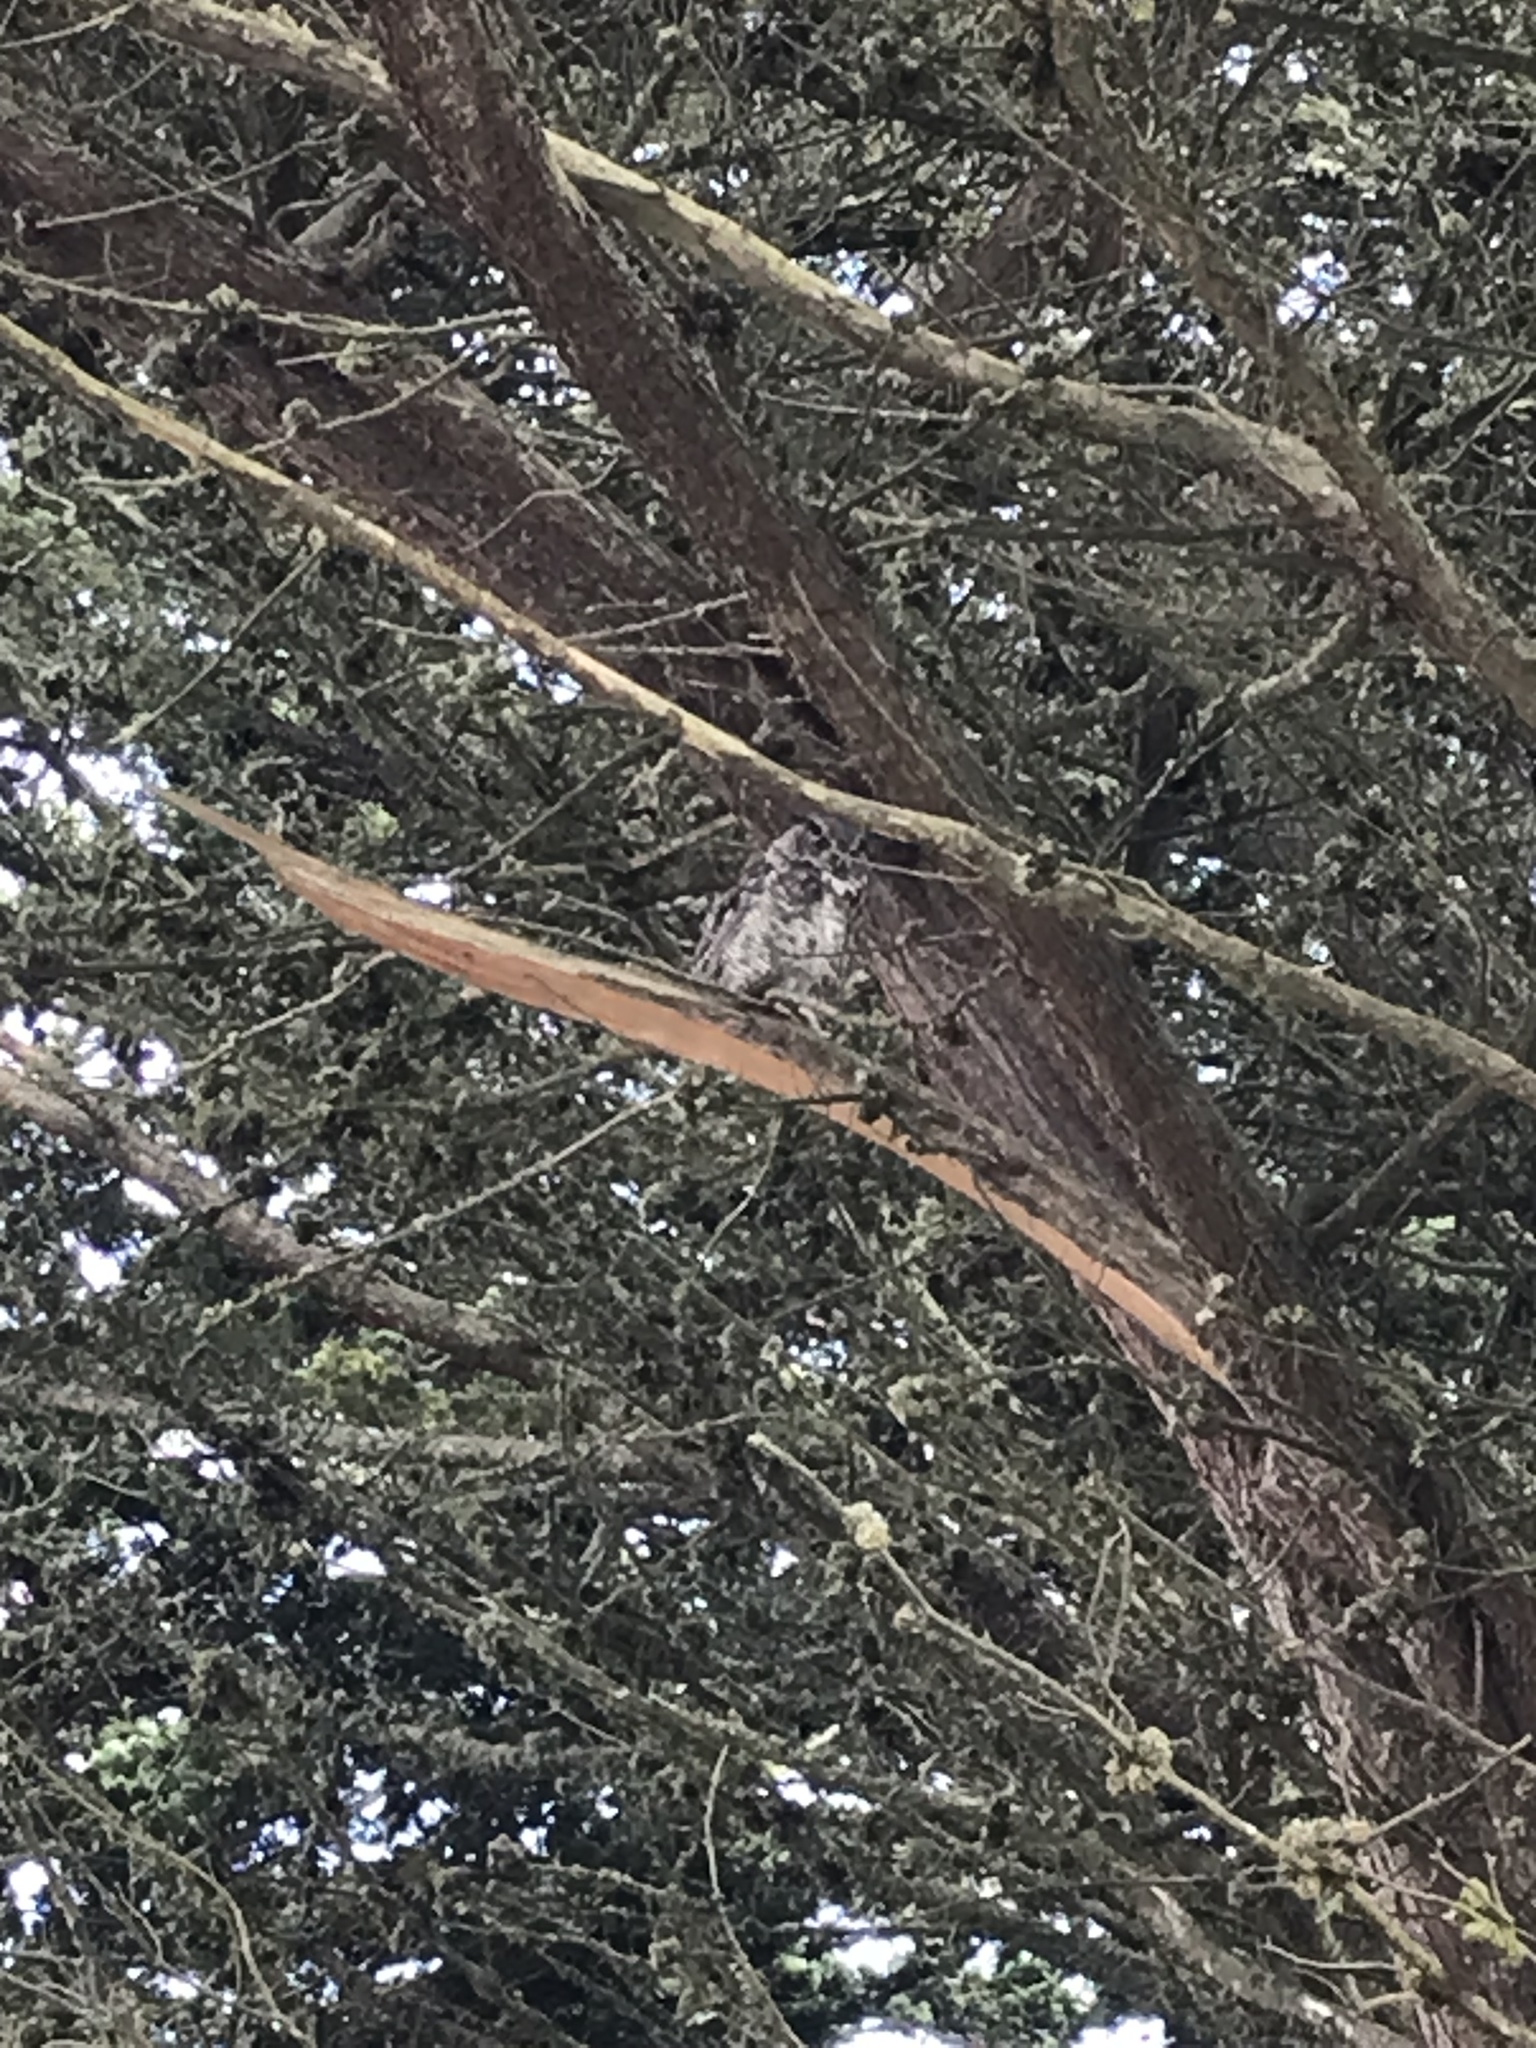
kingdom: Animalia
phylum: Chordata
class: Aves
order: Strigiformes
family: Strigidae
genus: Bubo
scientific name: Bubo virginianus
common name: Great horned owl
